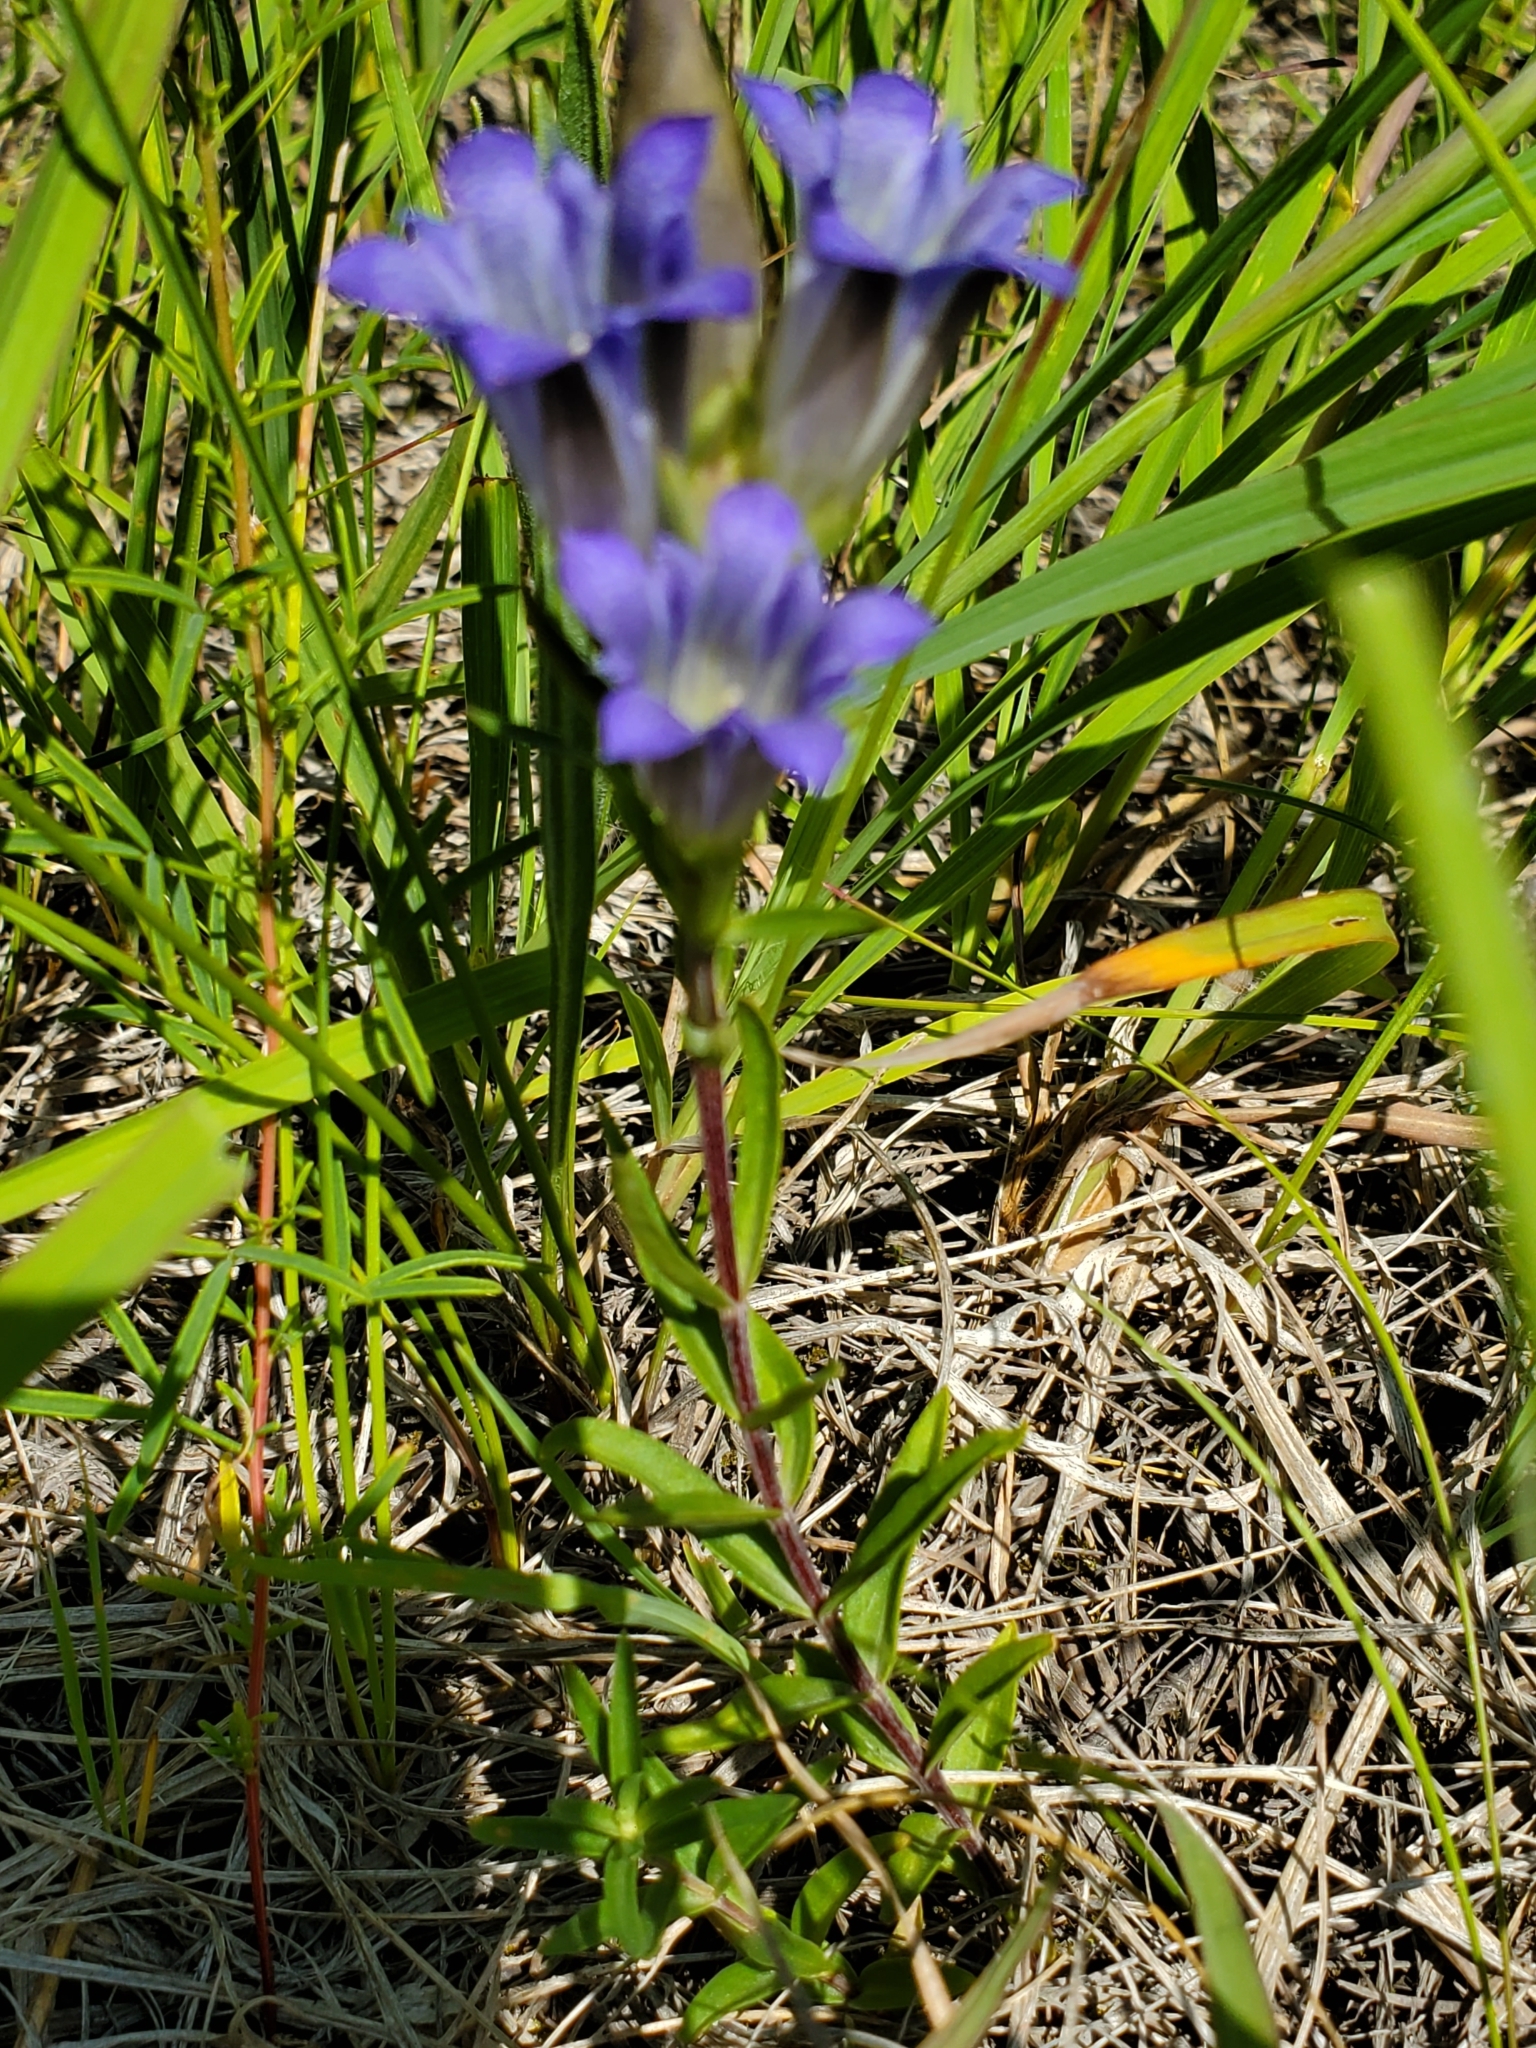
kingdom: Plantae
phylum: Tracheophyta
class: Magnoliopsida
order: Gentianales
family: Gentianaceae
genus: Gentiana
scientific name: Gentiana affinis
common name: Rocky mountain gentian
